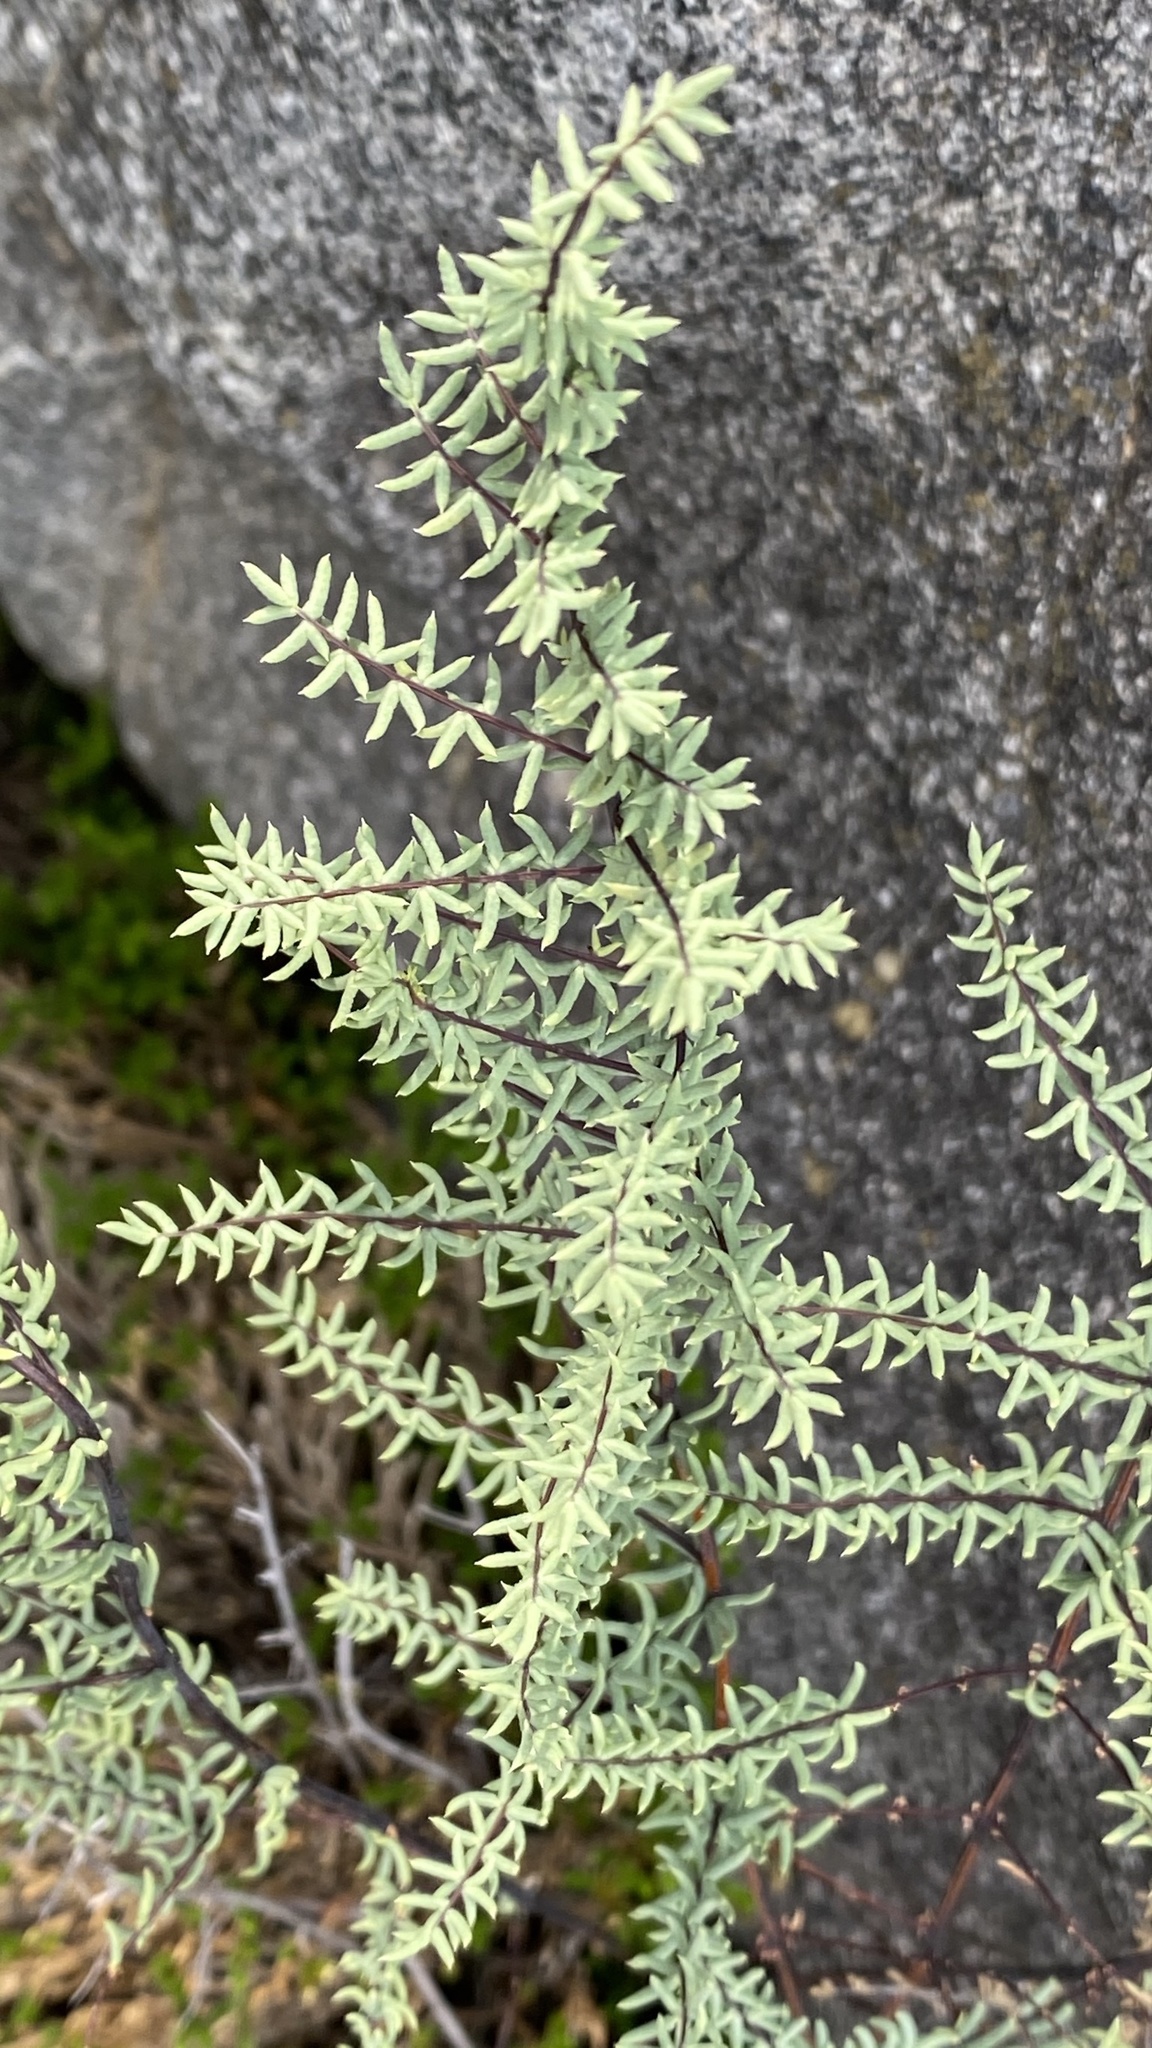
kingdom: Plantae
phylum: Tracheophyta
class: Polypodiopsida
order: Polypodiales
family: Pteridaceae
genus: Pellaea
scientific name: Pellaea mucronata
